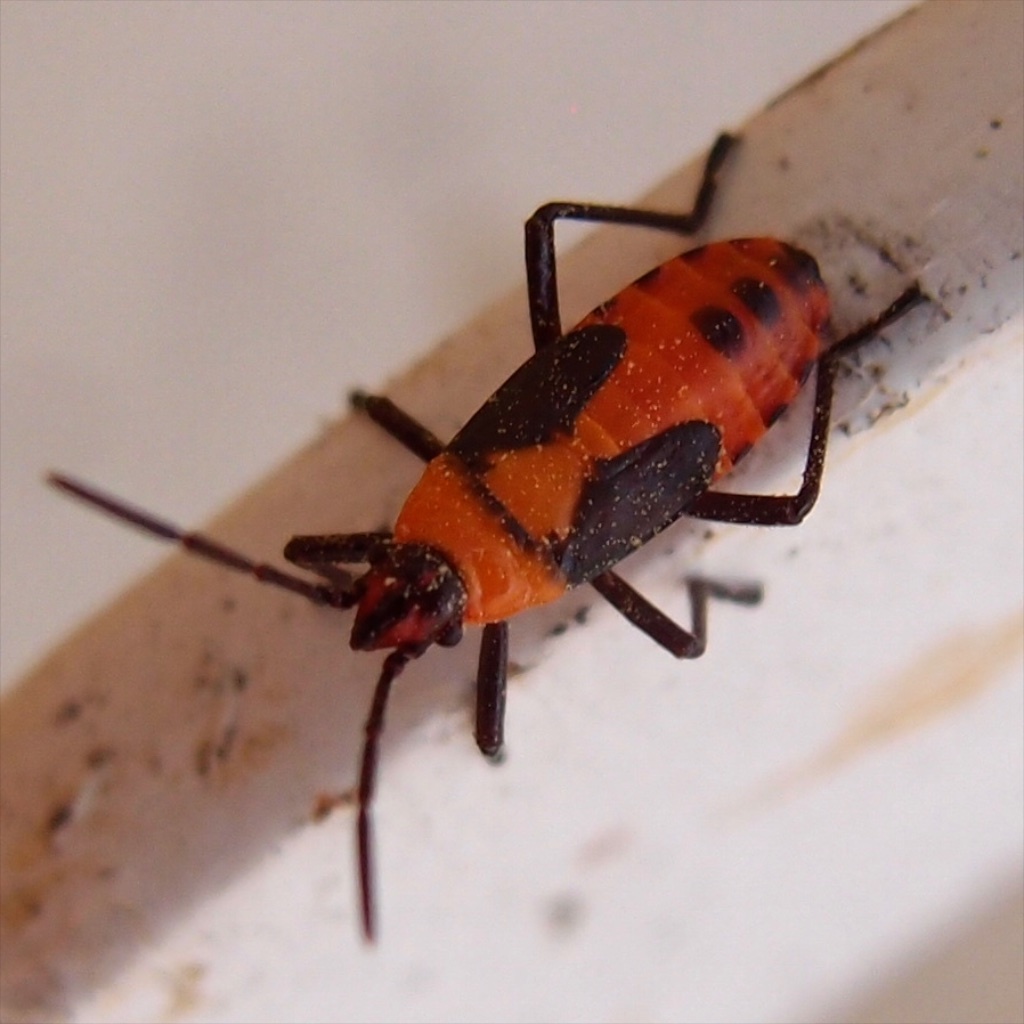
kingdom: Animalia
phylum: Arthropoda
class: Insecta
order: Hemiptera
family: Lygaeidae
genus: Oncopeltus
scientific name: Oncopeltus fasciatus
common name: Large milkweed bug
